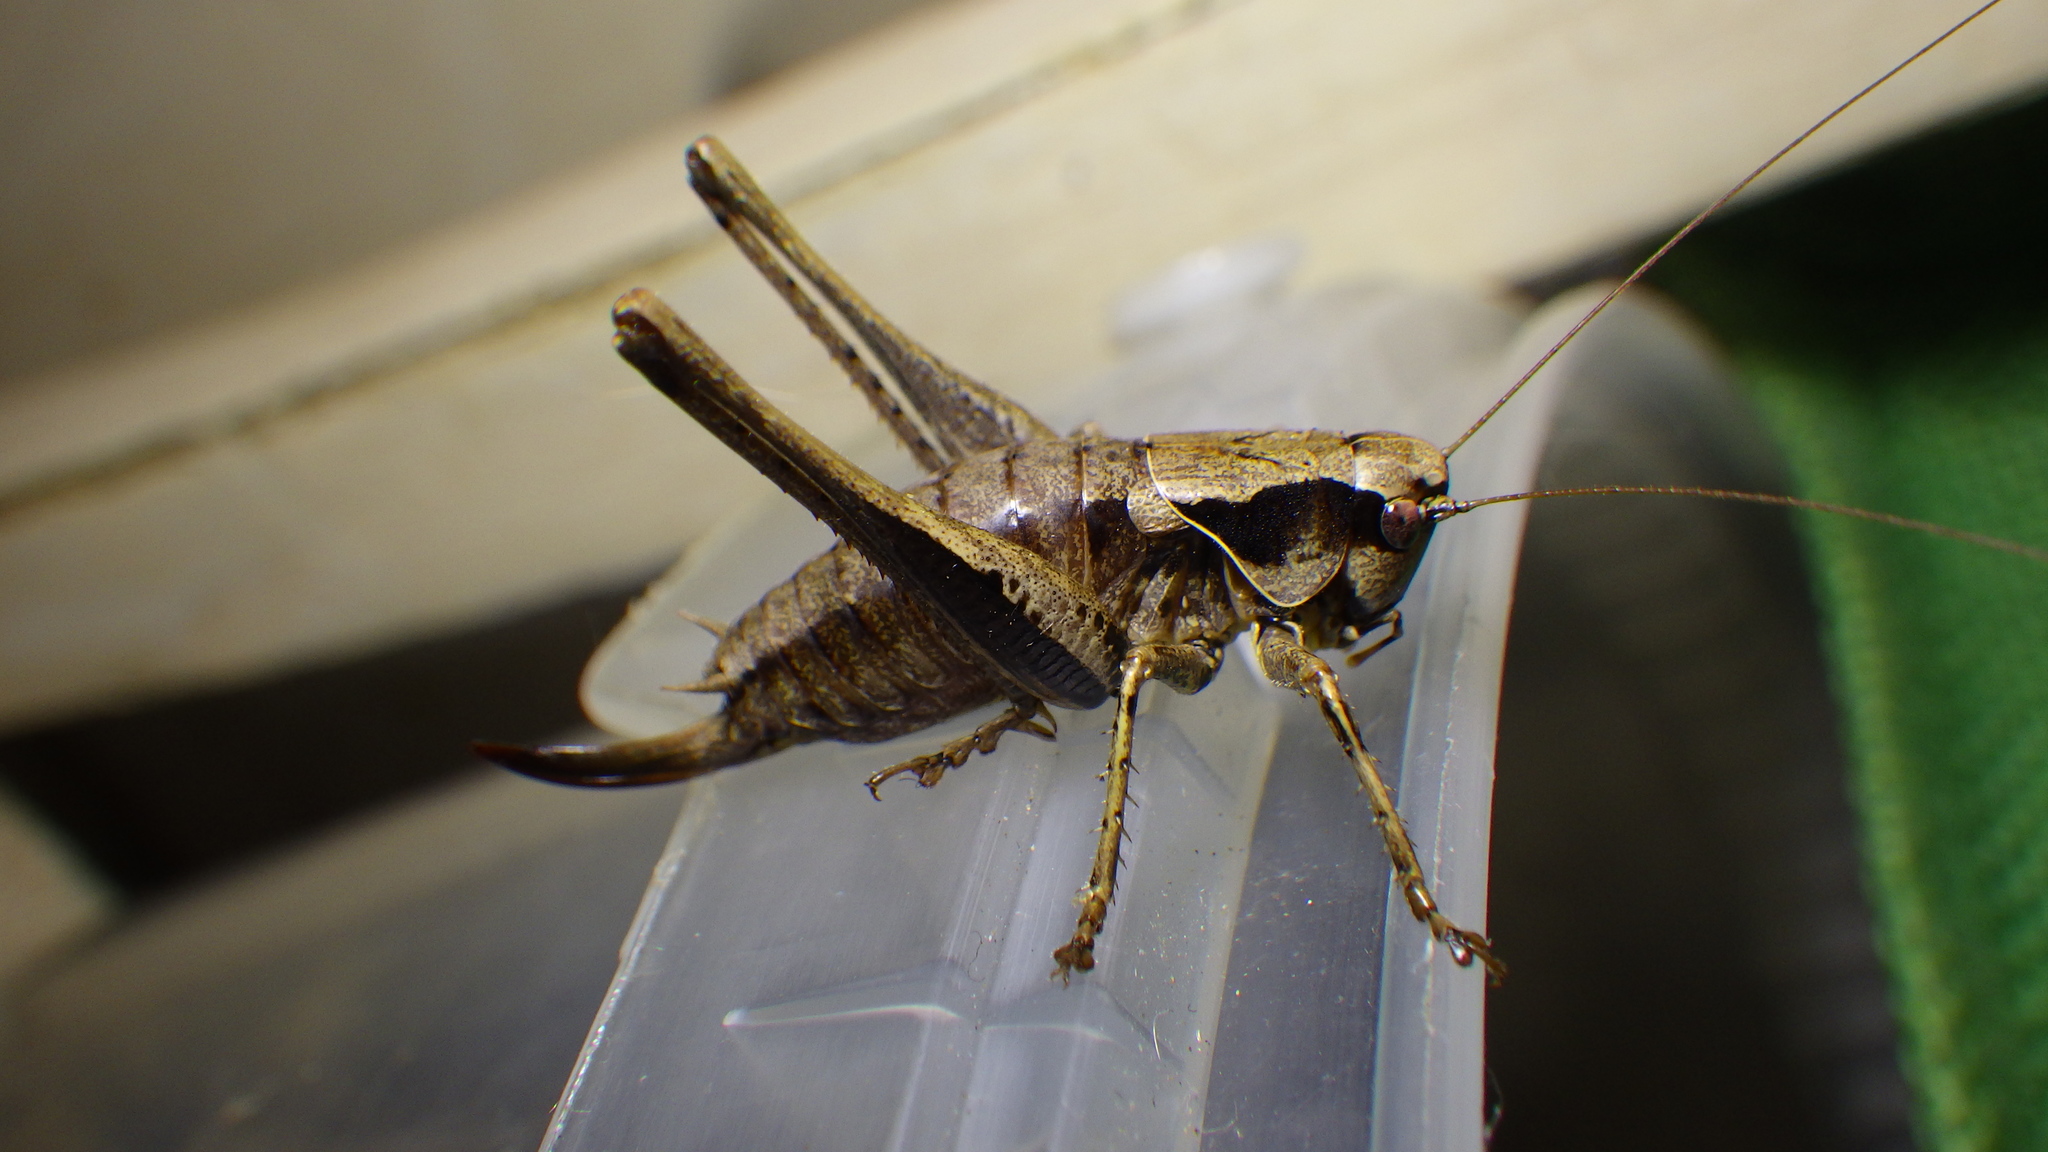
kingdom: Animalia
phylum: Arthropoda
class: Insecta
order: Orthoptera
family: Tettigoniidae
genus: Pholidoptera
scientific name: Pholidoptera griseoaptera
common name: Dark bush-cricket
